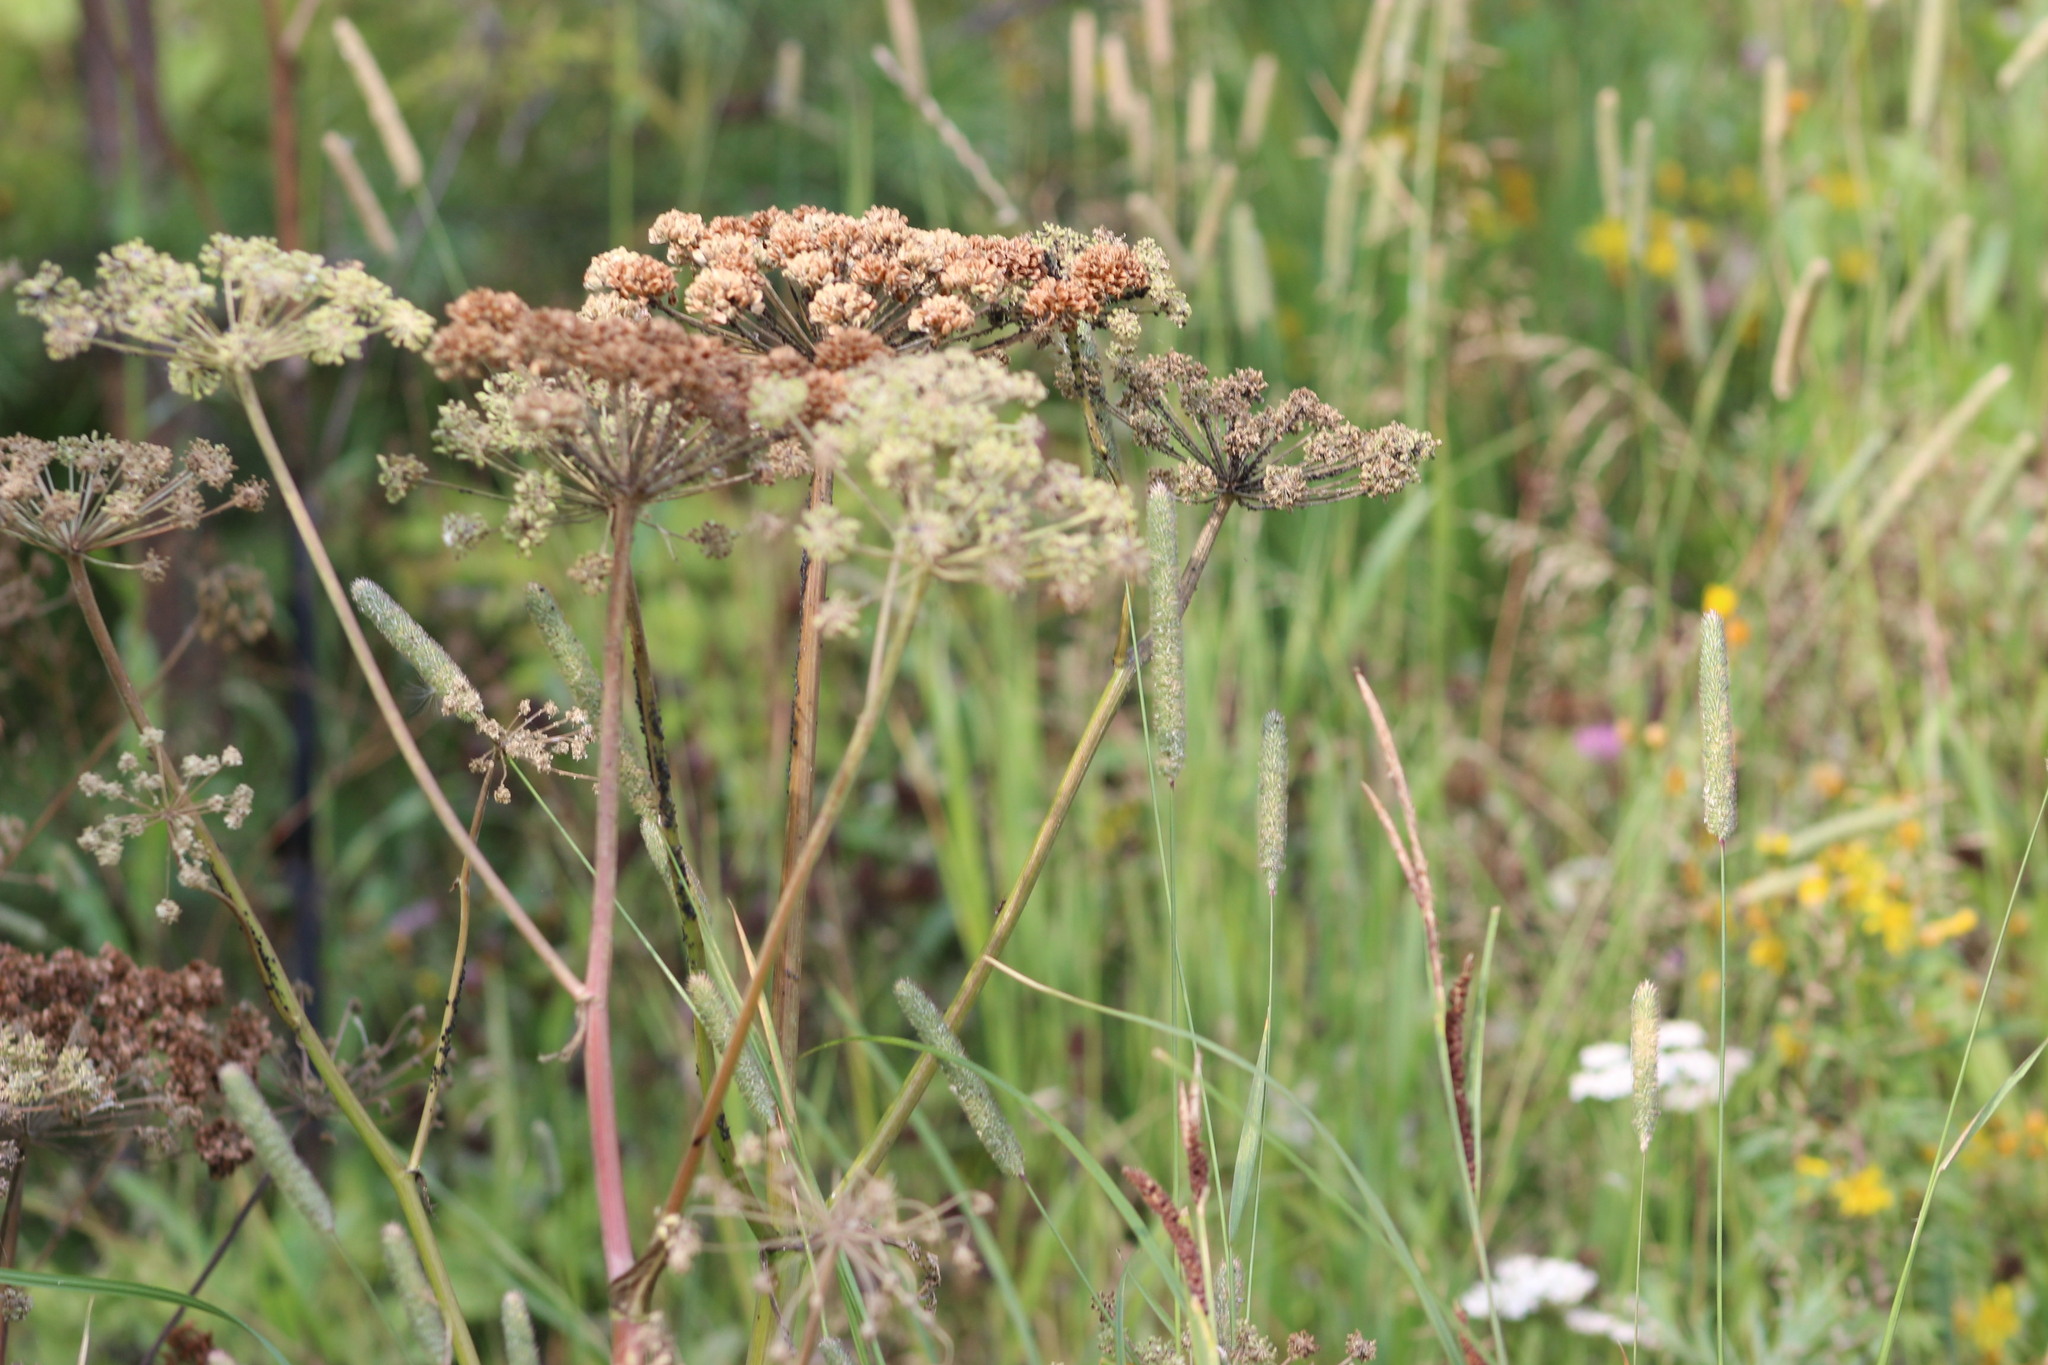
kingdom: Plantae
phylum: Tracheophyta
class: Magnoliopsida
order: Apiales
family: Apiaceae
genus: Angelica
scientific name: Angelica sylvestris
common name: Wild angelica
